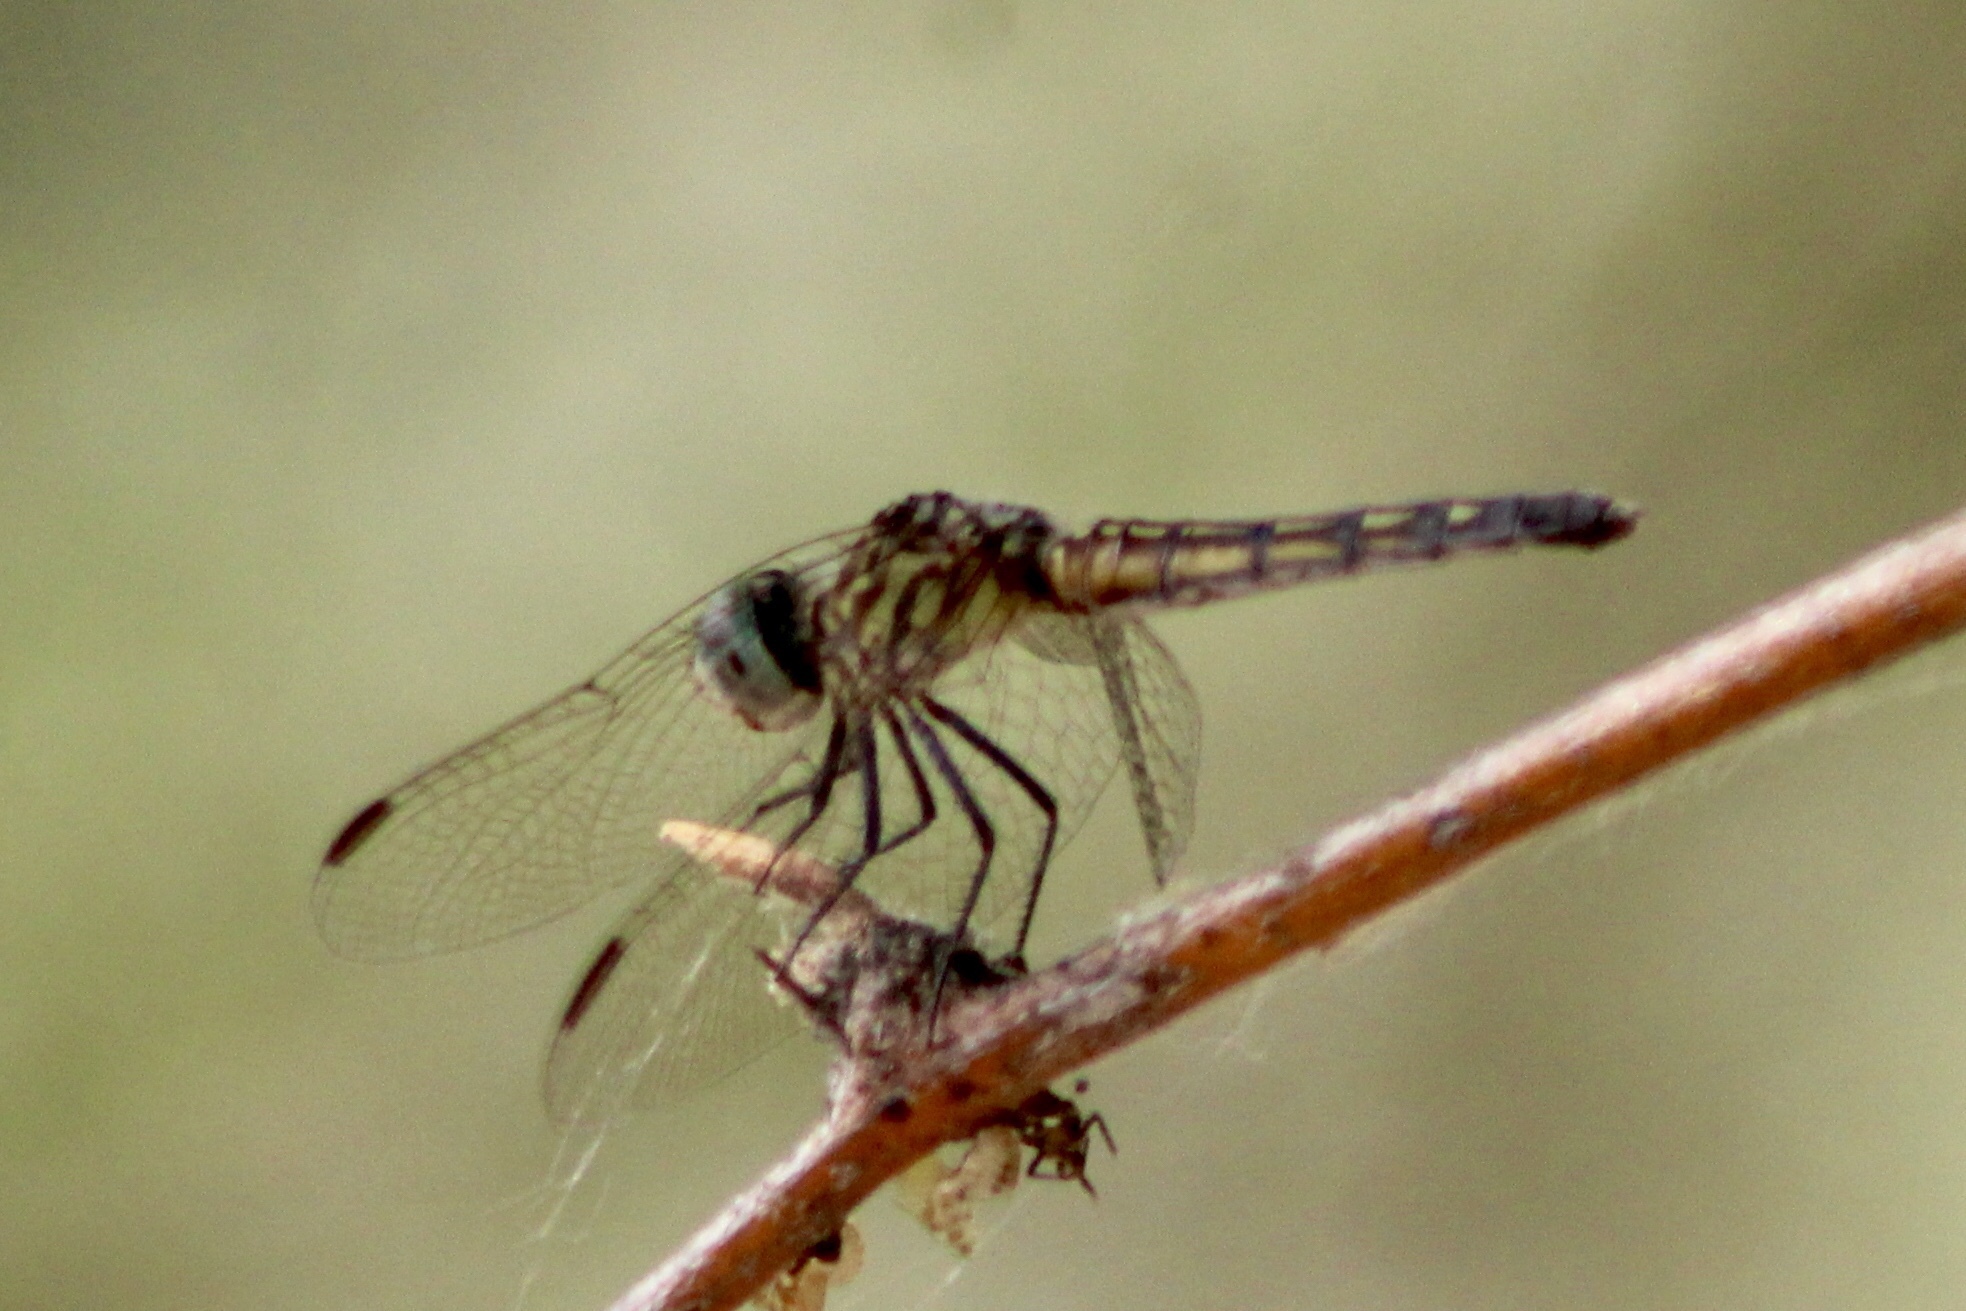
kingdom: Animalia
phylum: Arthropoda
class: Insecta
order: Odonata
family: Libellulidae
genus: Pachydiplax
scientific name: Pachydiplax longipennis
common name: Blue dasher
